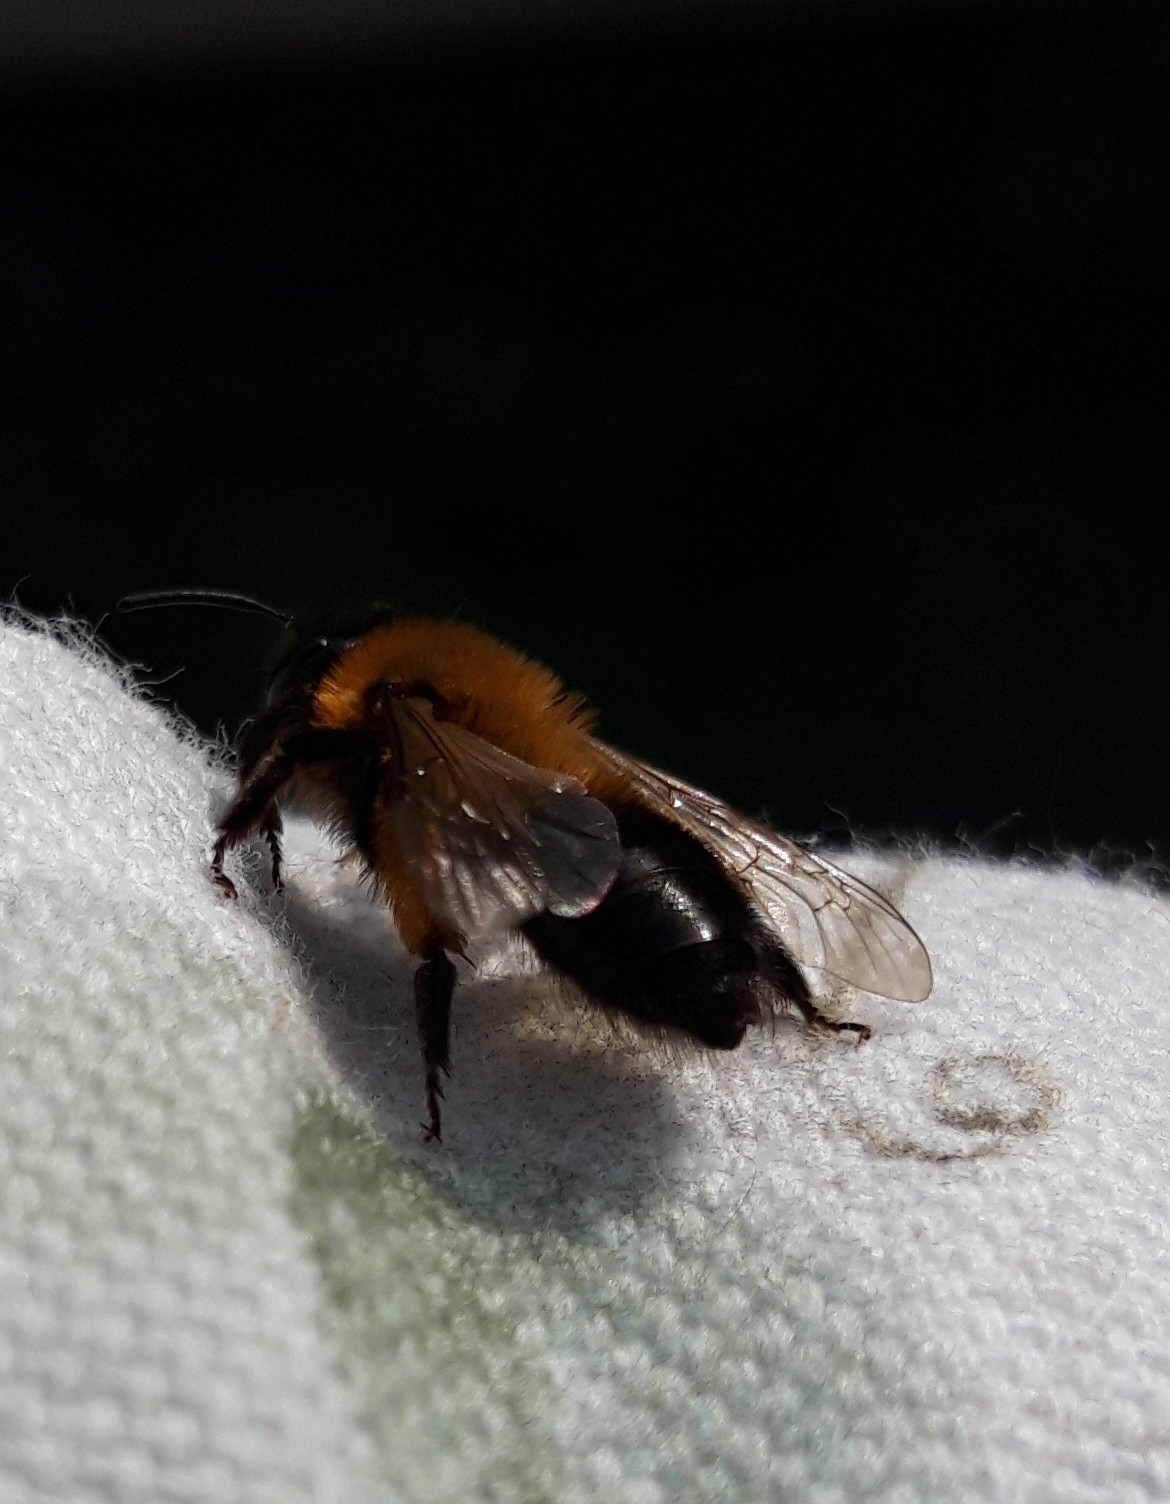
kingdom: Animalia
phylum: Arthropoda
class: Insecta
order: Hymenoptera
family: Andrenidae
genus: Andrena
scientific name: Andrena nigroaenea
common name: Buffish mining bee
